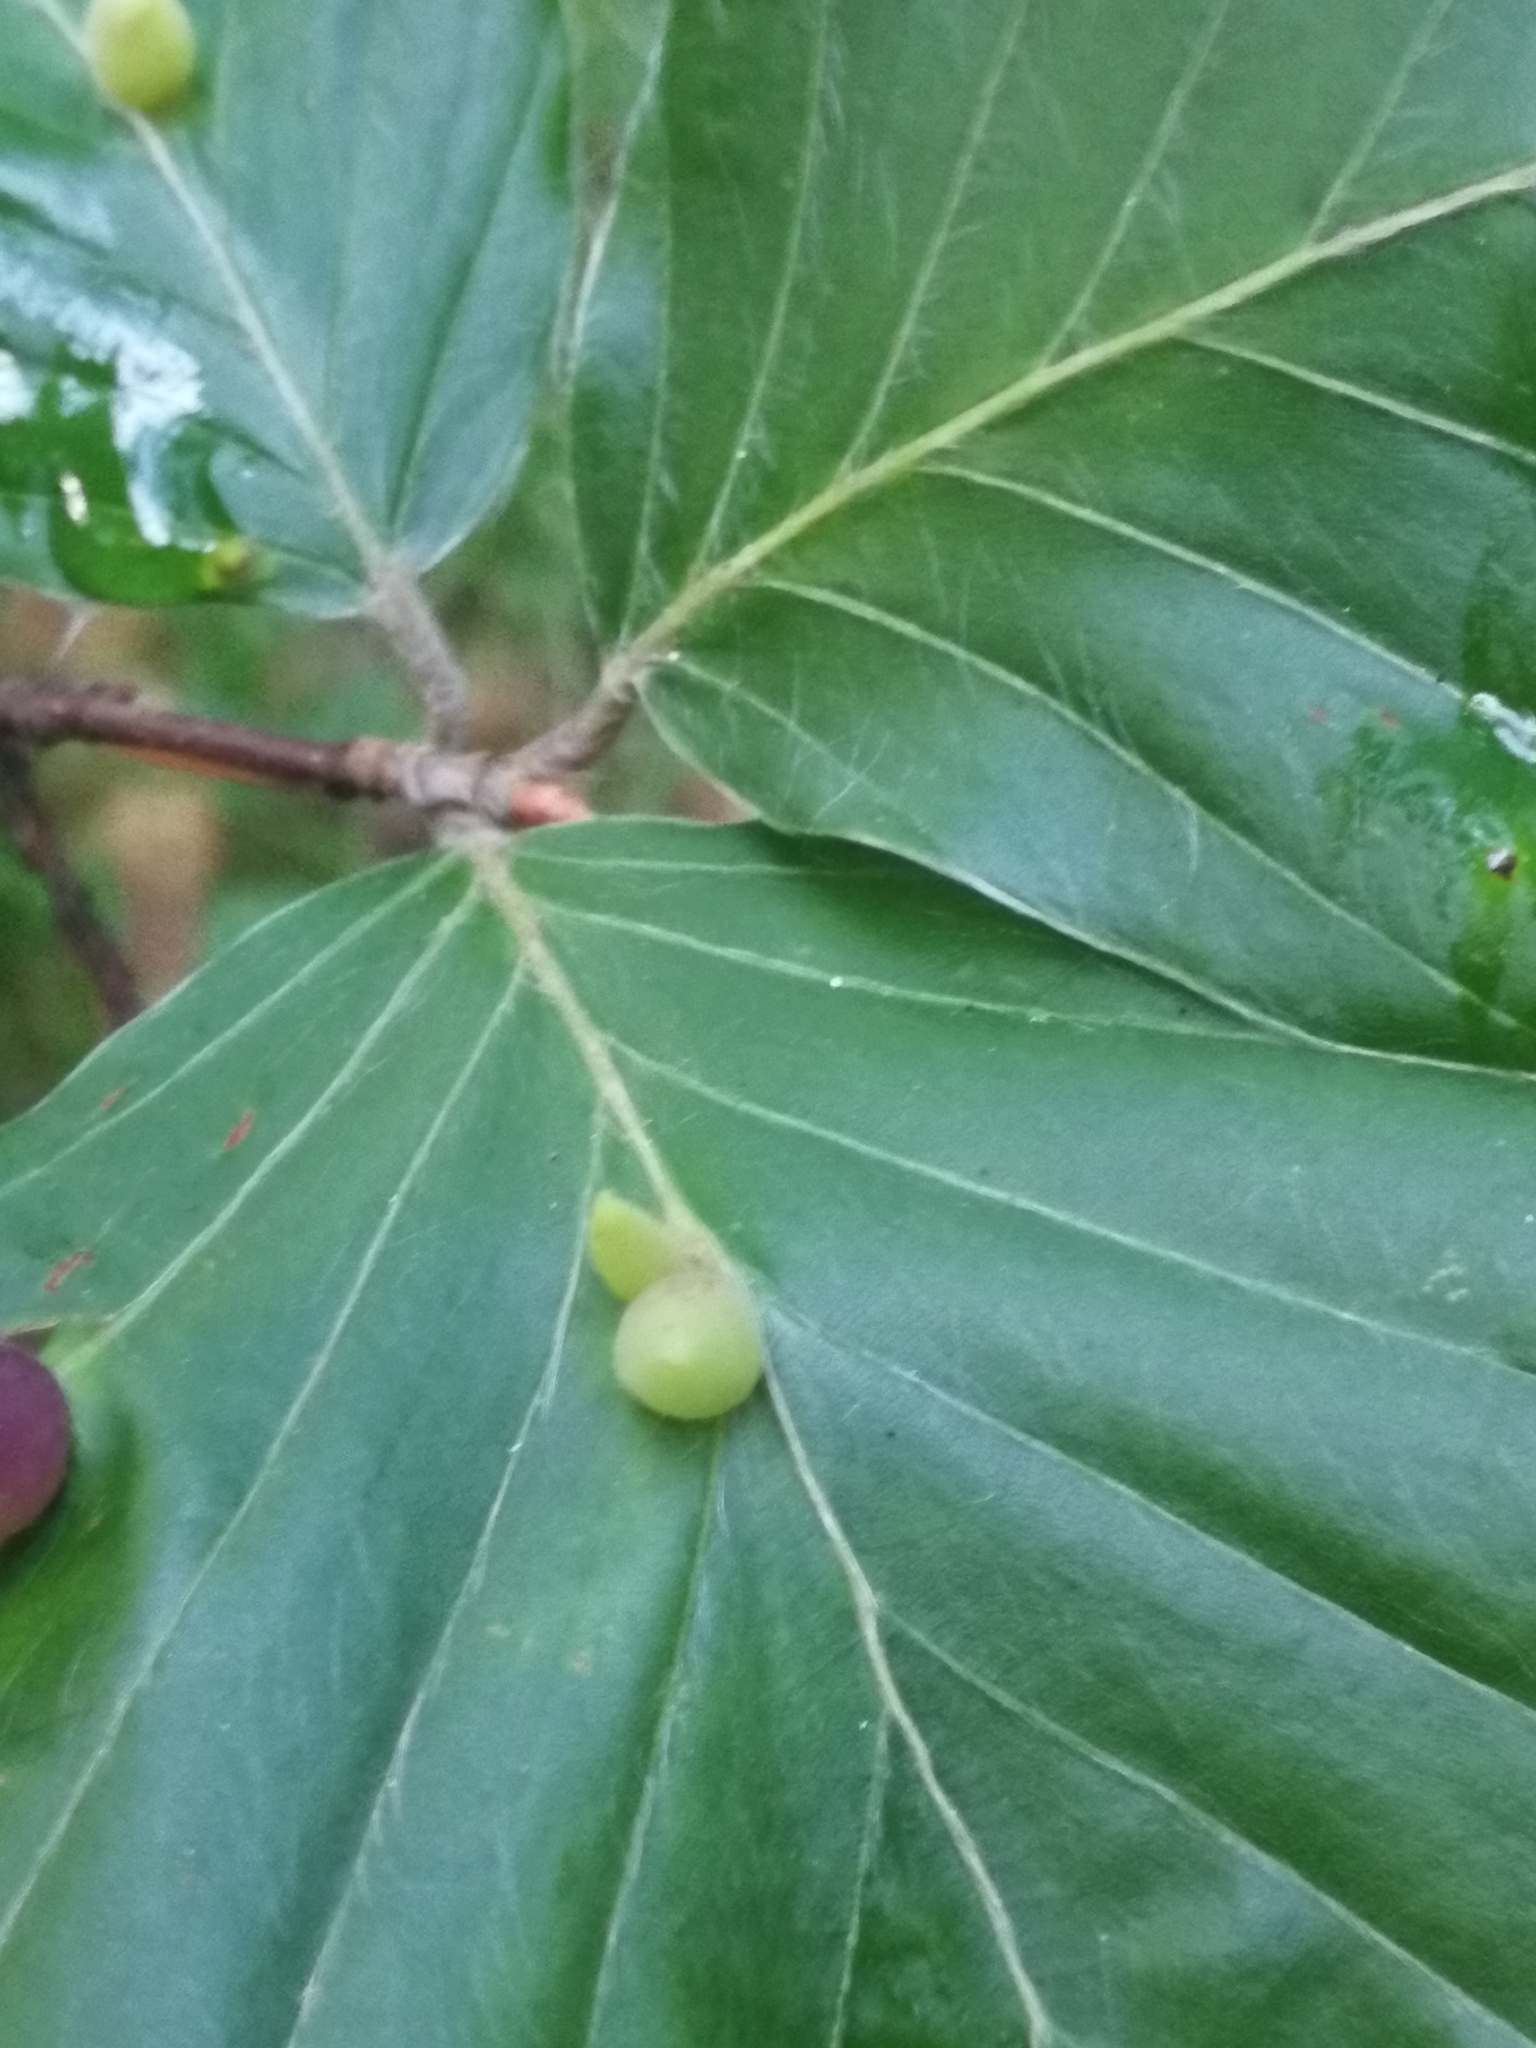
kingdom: Animalia
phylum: Arthropoda
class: Insecta
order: Diptera
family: Cecidomyiidae
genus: Mikiola
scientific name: Mikiola fagi
